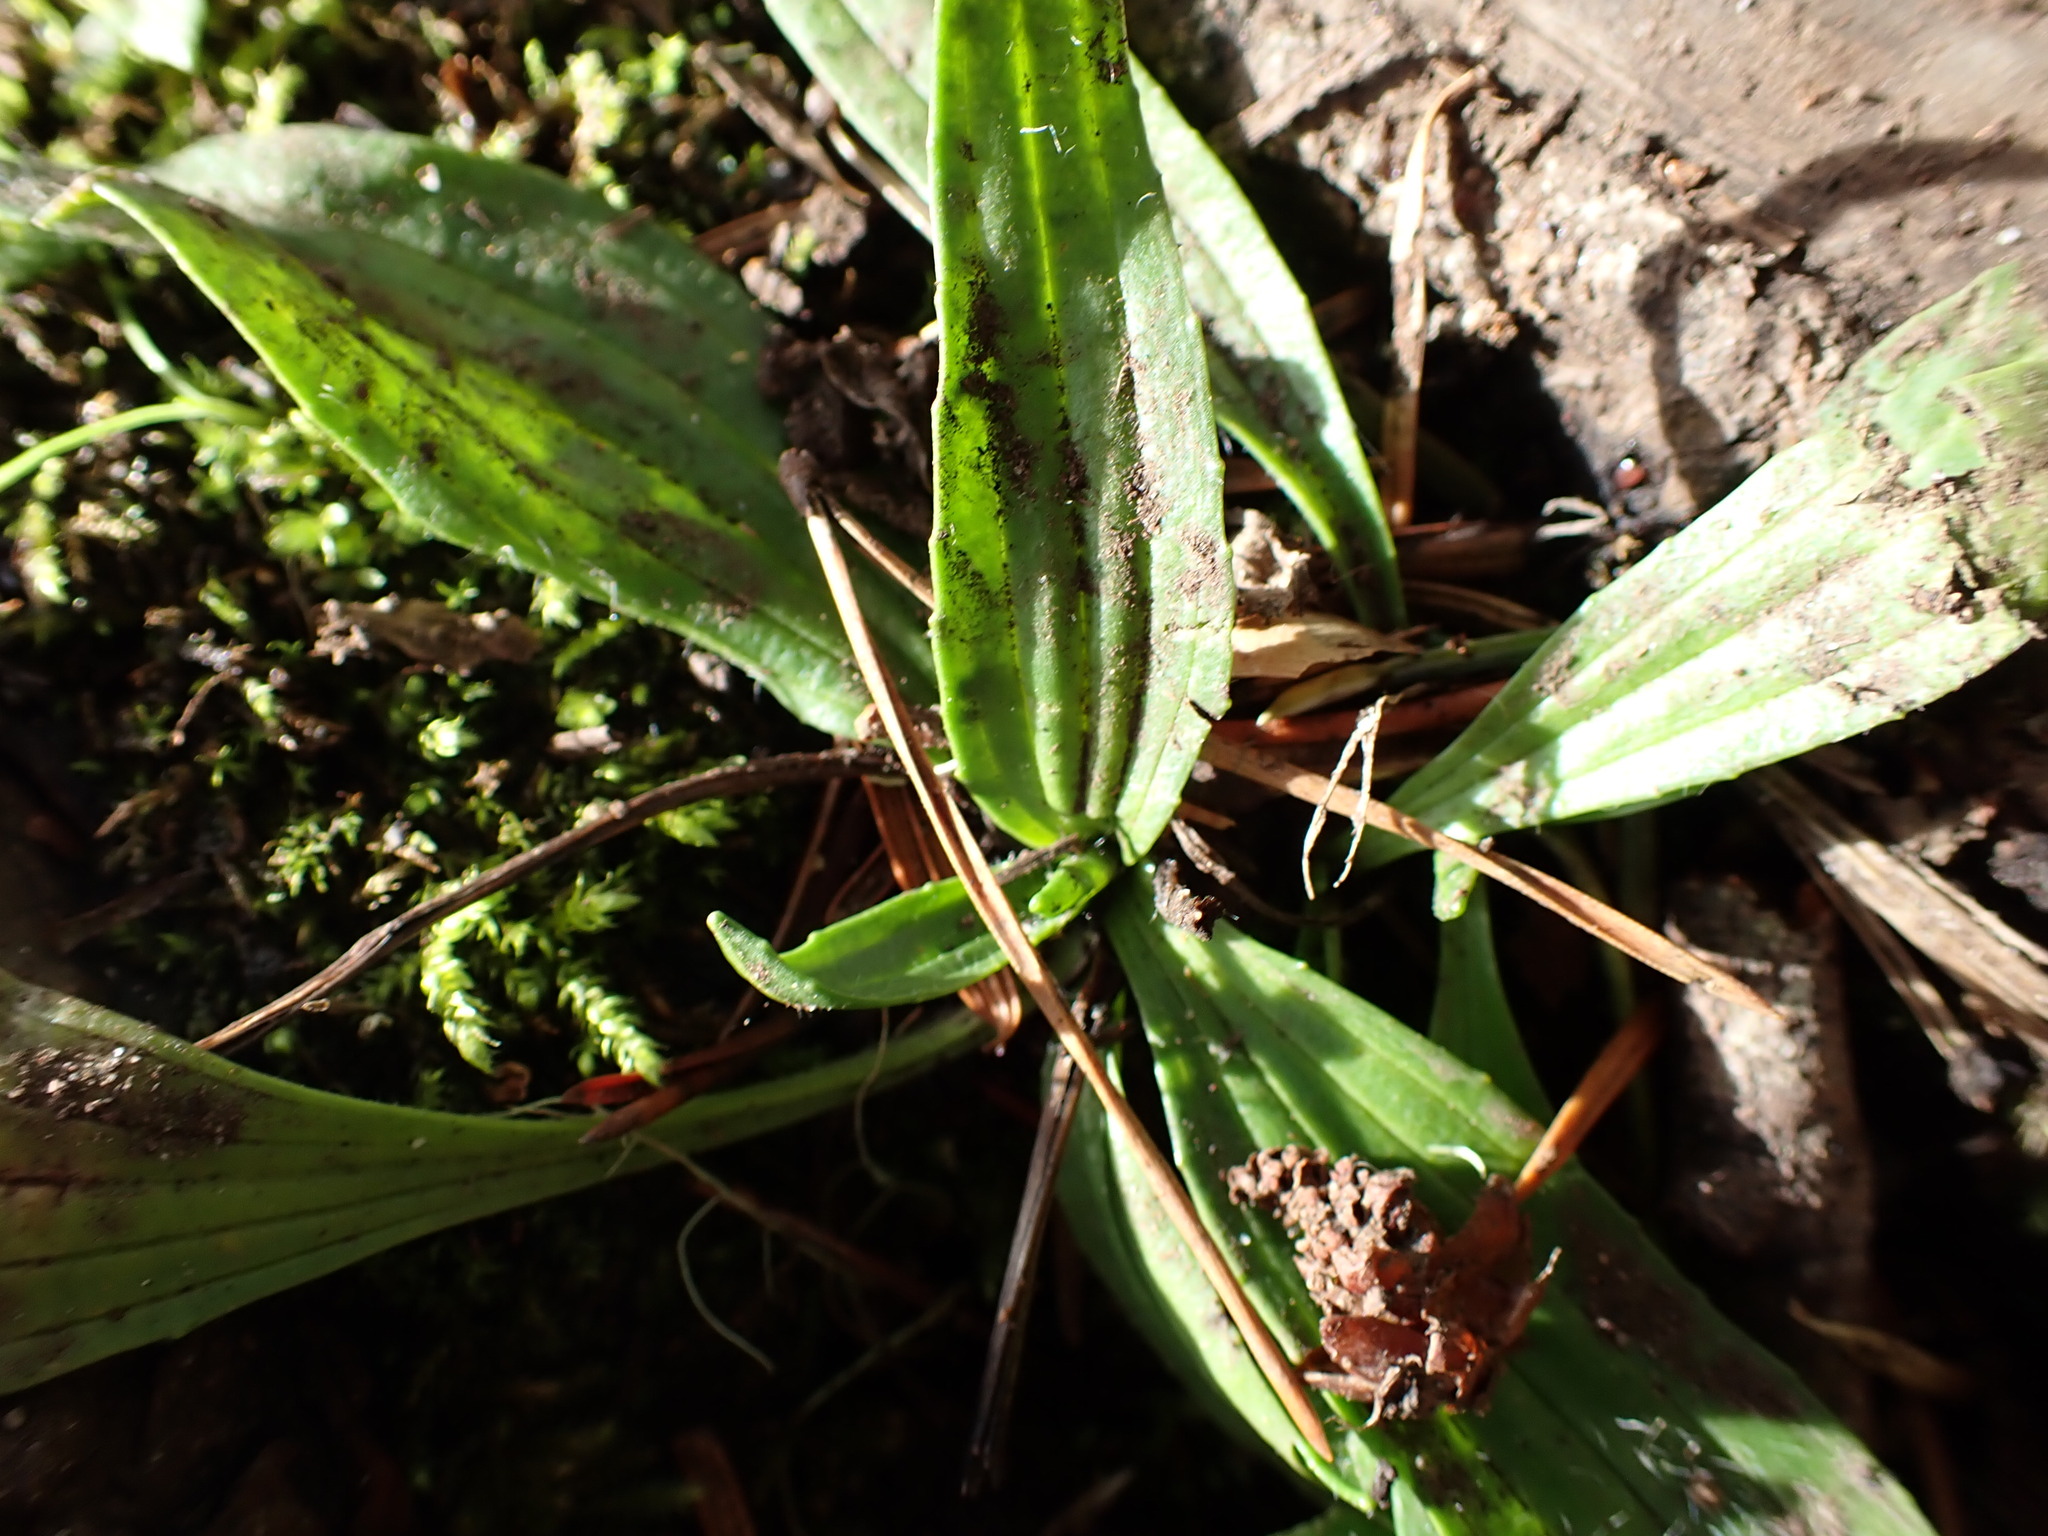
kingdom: Plantae
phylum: Tracheophyta
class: Magnoliopsida
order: Lamiales
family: Plantaginaceae
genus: Plantago
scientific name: Plantago lanceolata
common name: Ribwort plantain
